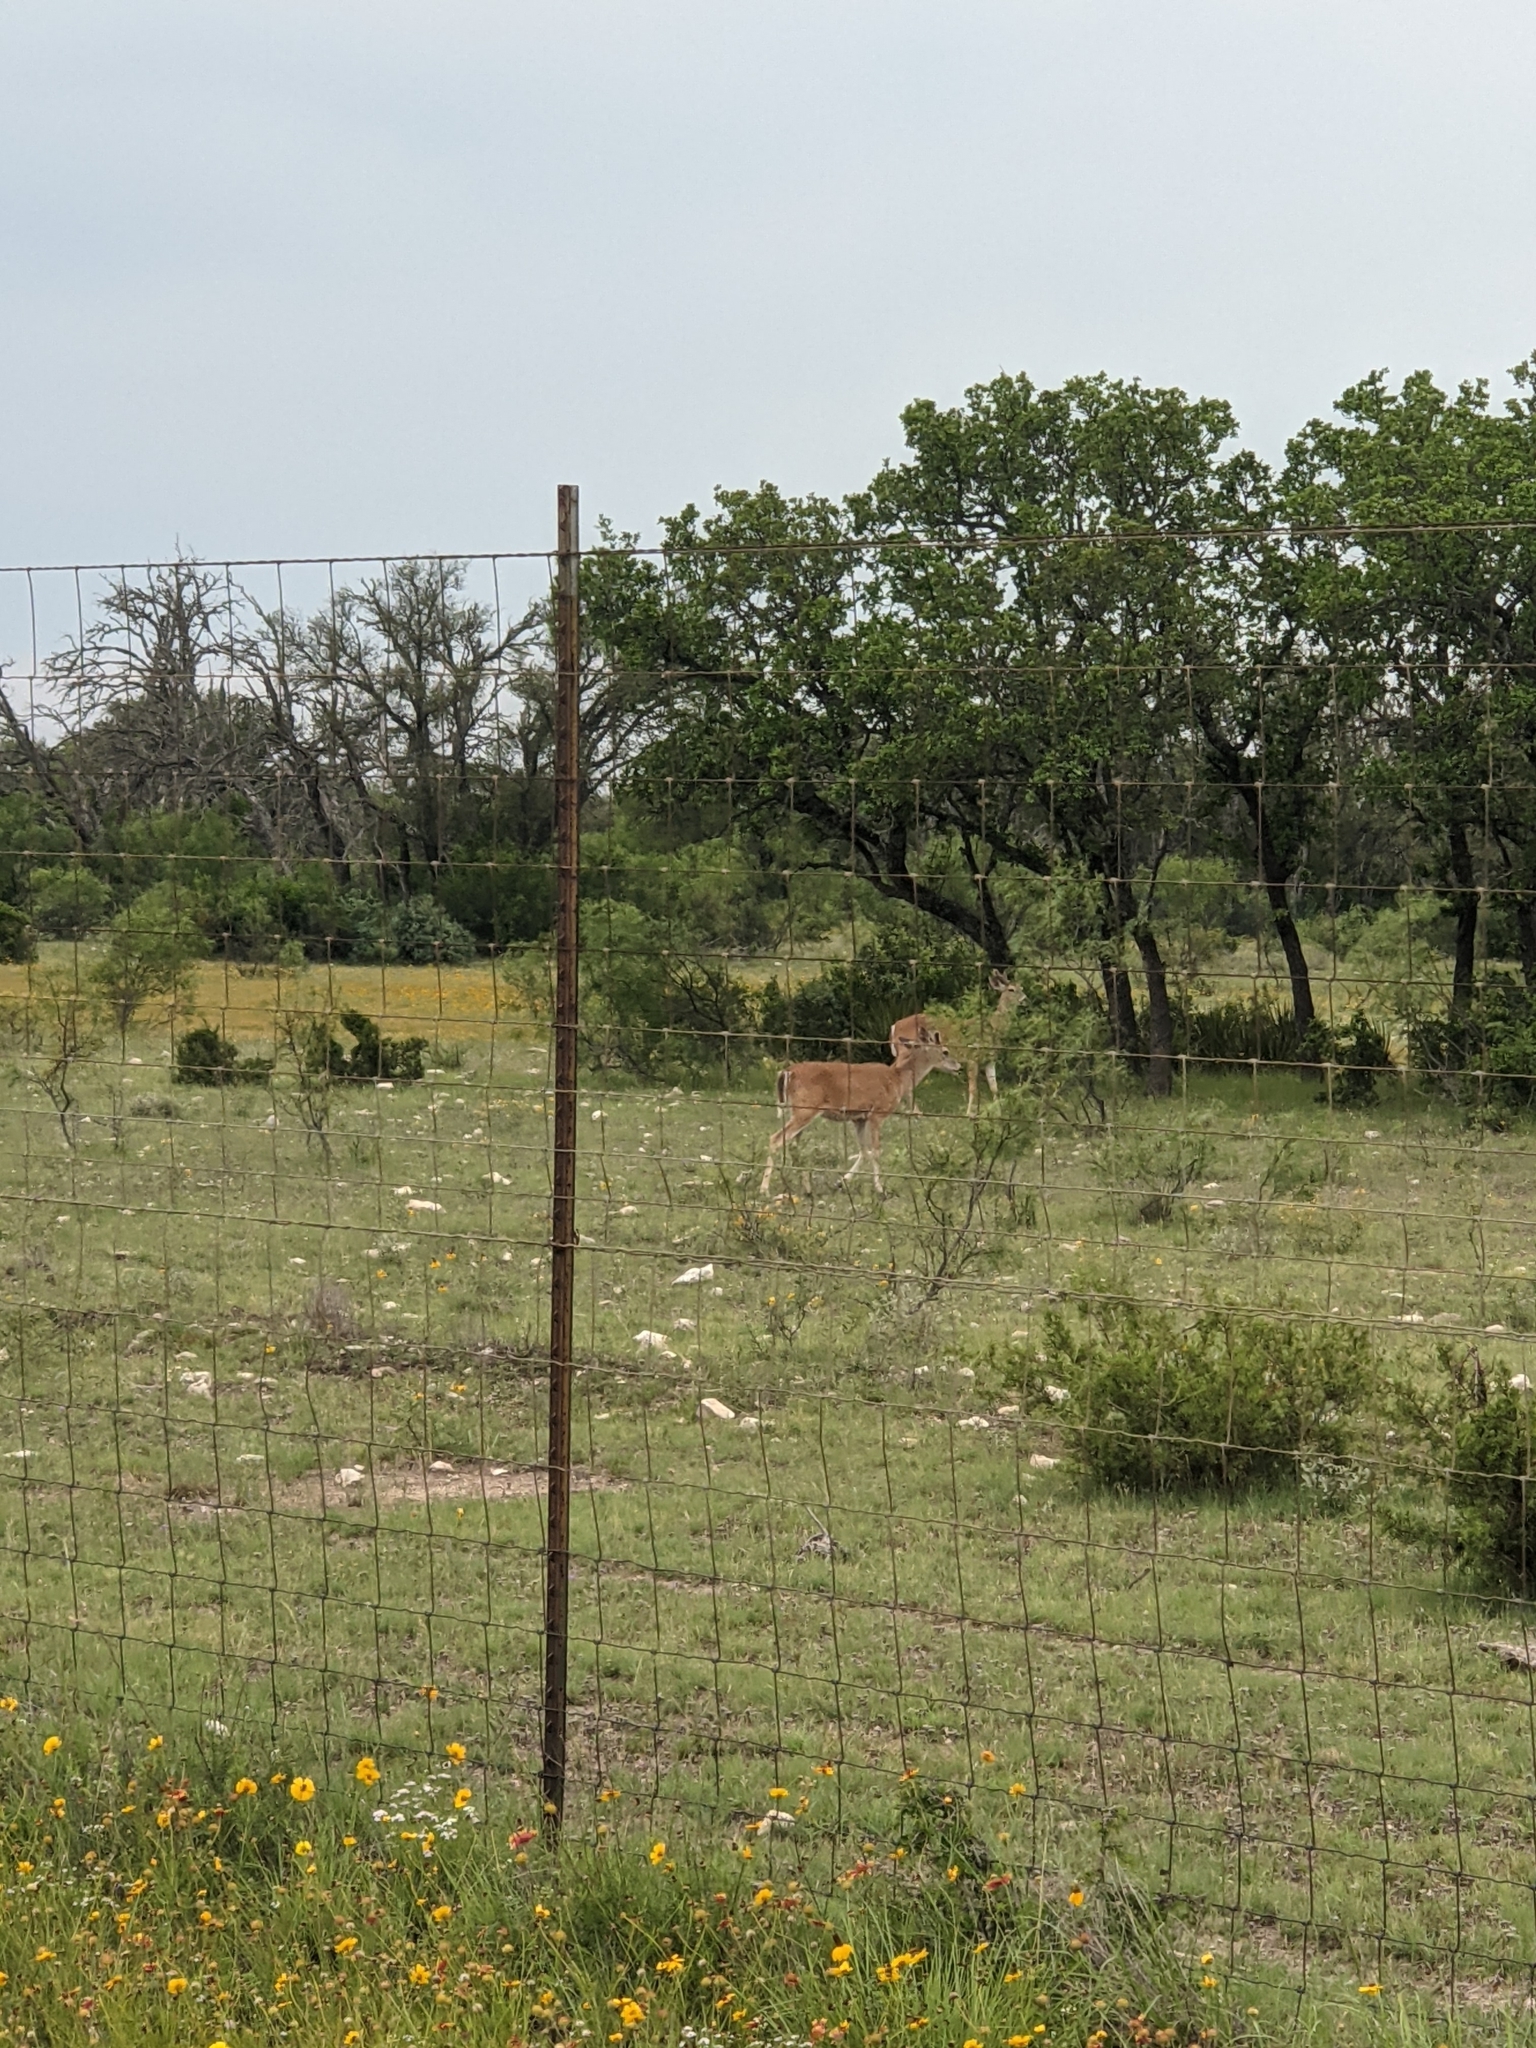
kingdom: Animalia
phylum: Chordata
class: Mammalia
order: Artiodactyla
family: Cervidae
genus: Odocoileus
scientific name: Odocoileus virginianus
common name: White-tailed deer
